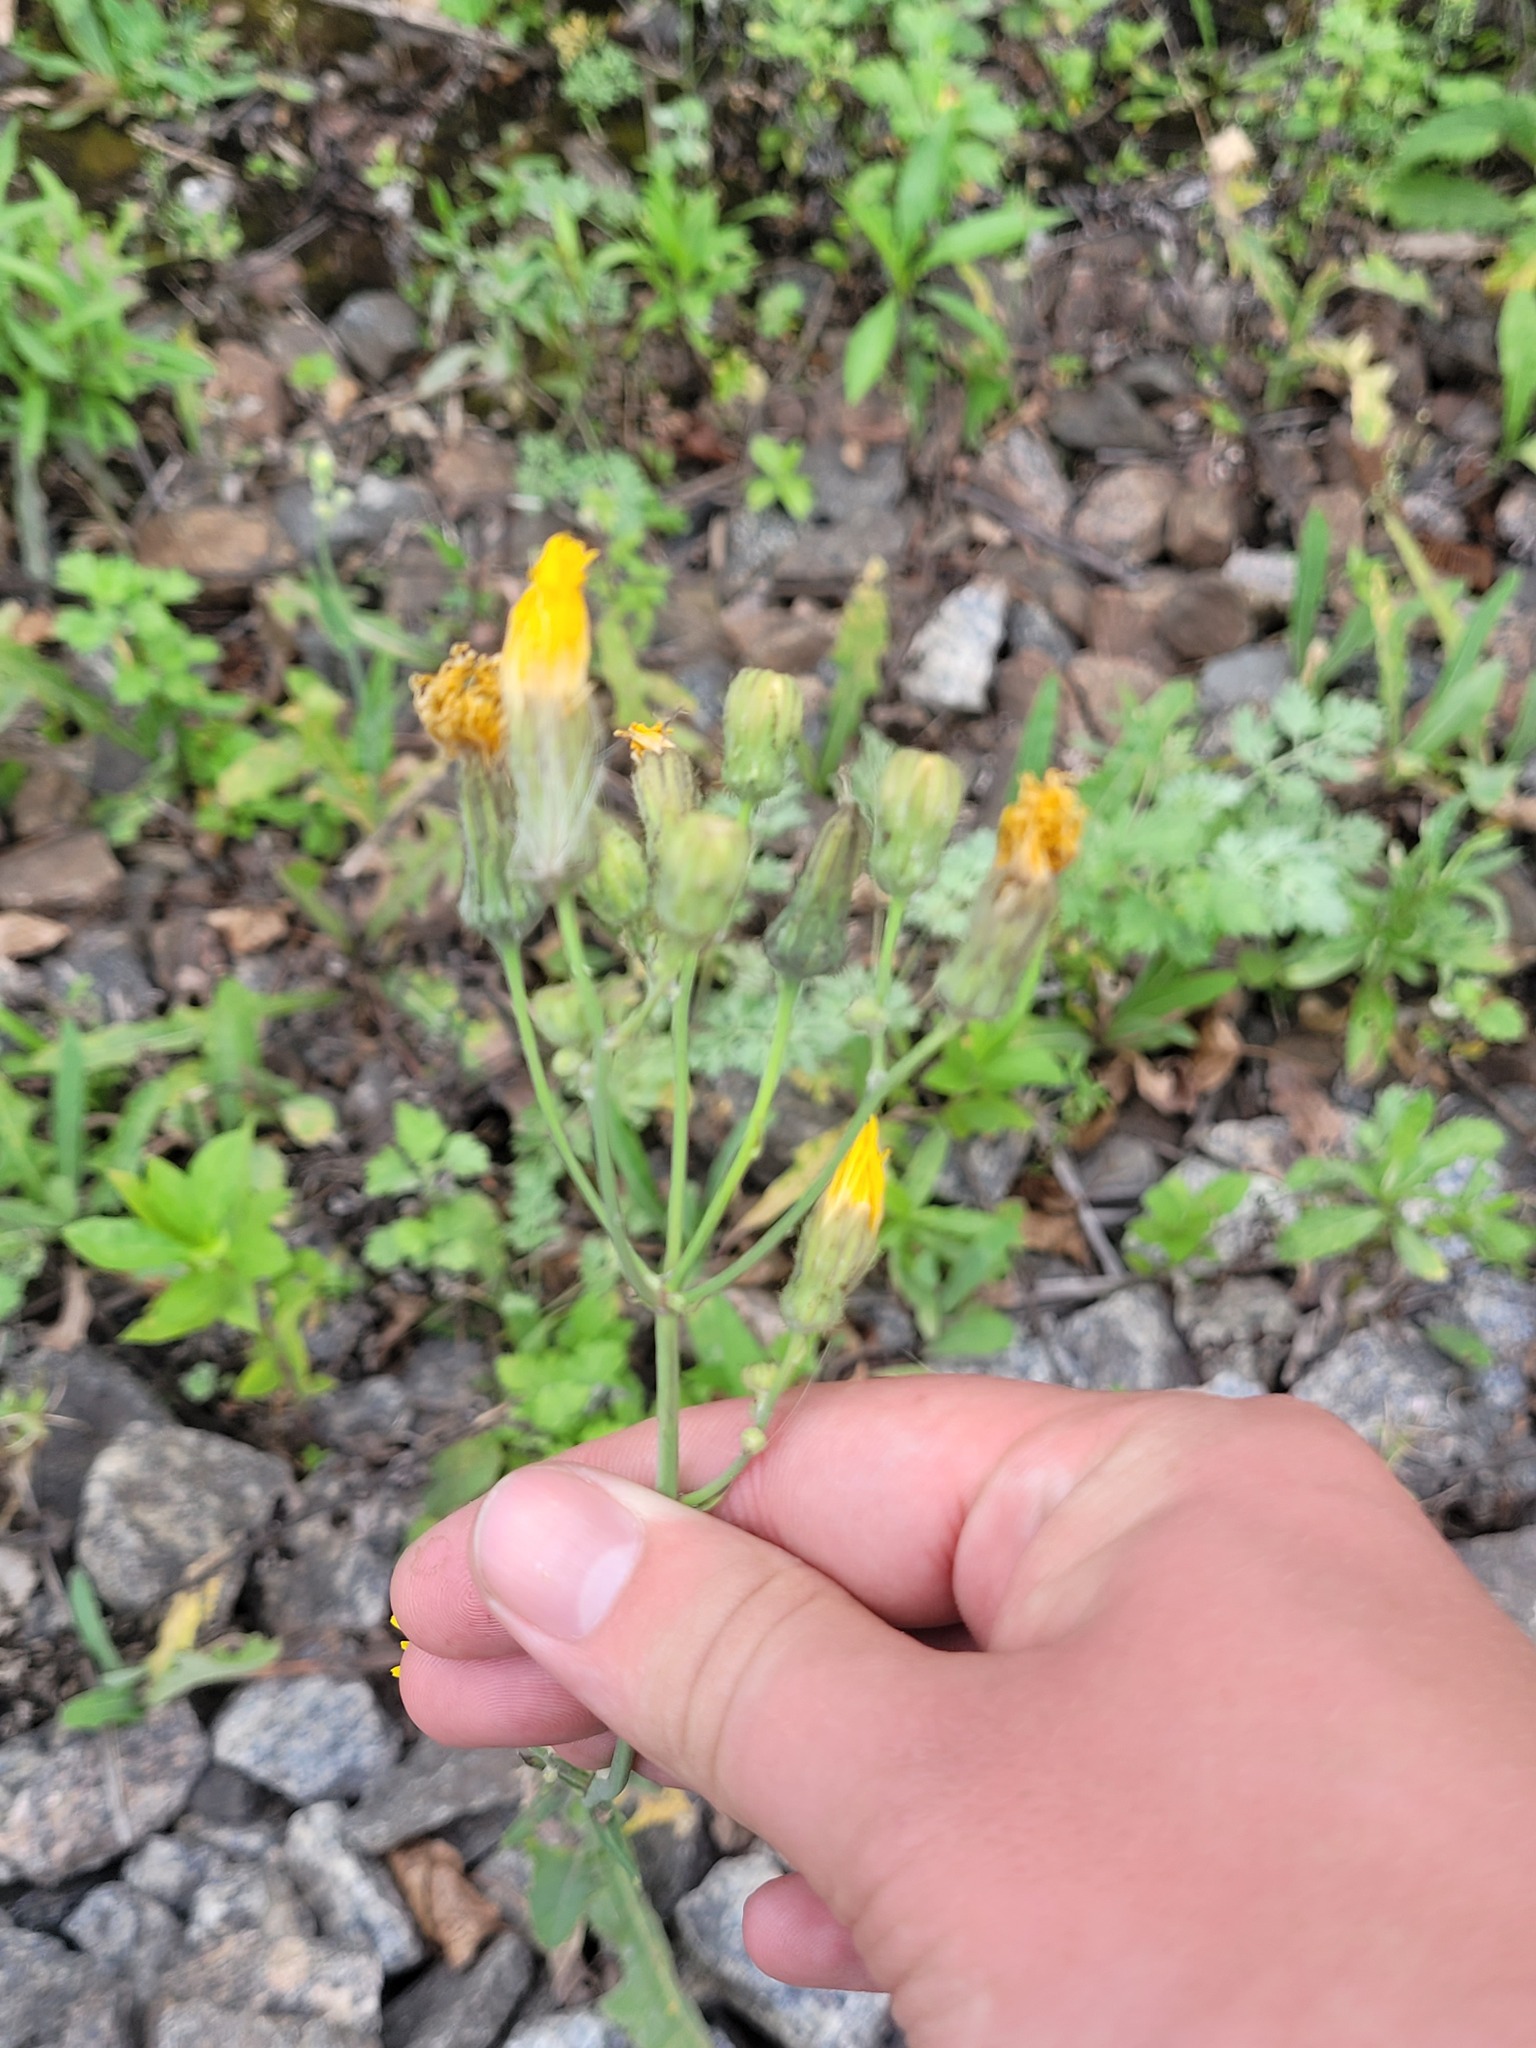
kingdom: Plantae
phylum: Tracheophyta
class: Magnoliopsida
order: Asterales
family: Asteraceae
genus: Sonchus
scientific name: Sonchus arvensis
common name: Perennial sow-thistle
